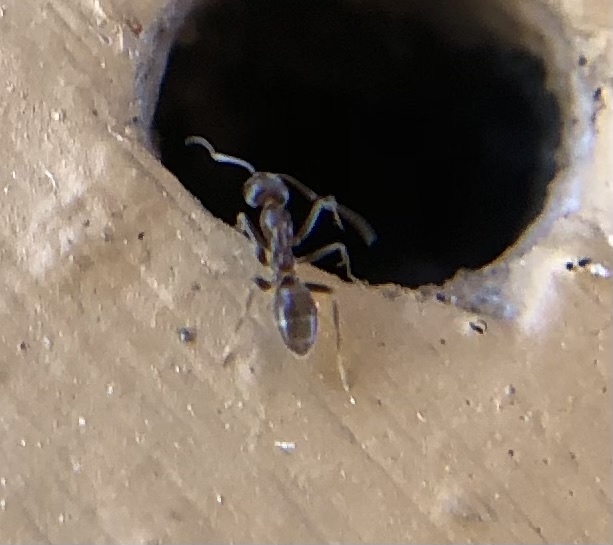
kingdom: Animalia
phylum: Arthropoda
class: Insecta
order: Hymenoptera
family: Formicidae
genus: Linepithema
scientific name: Linepithema humile
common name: Argentine ant
